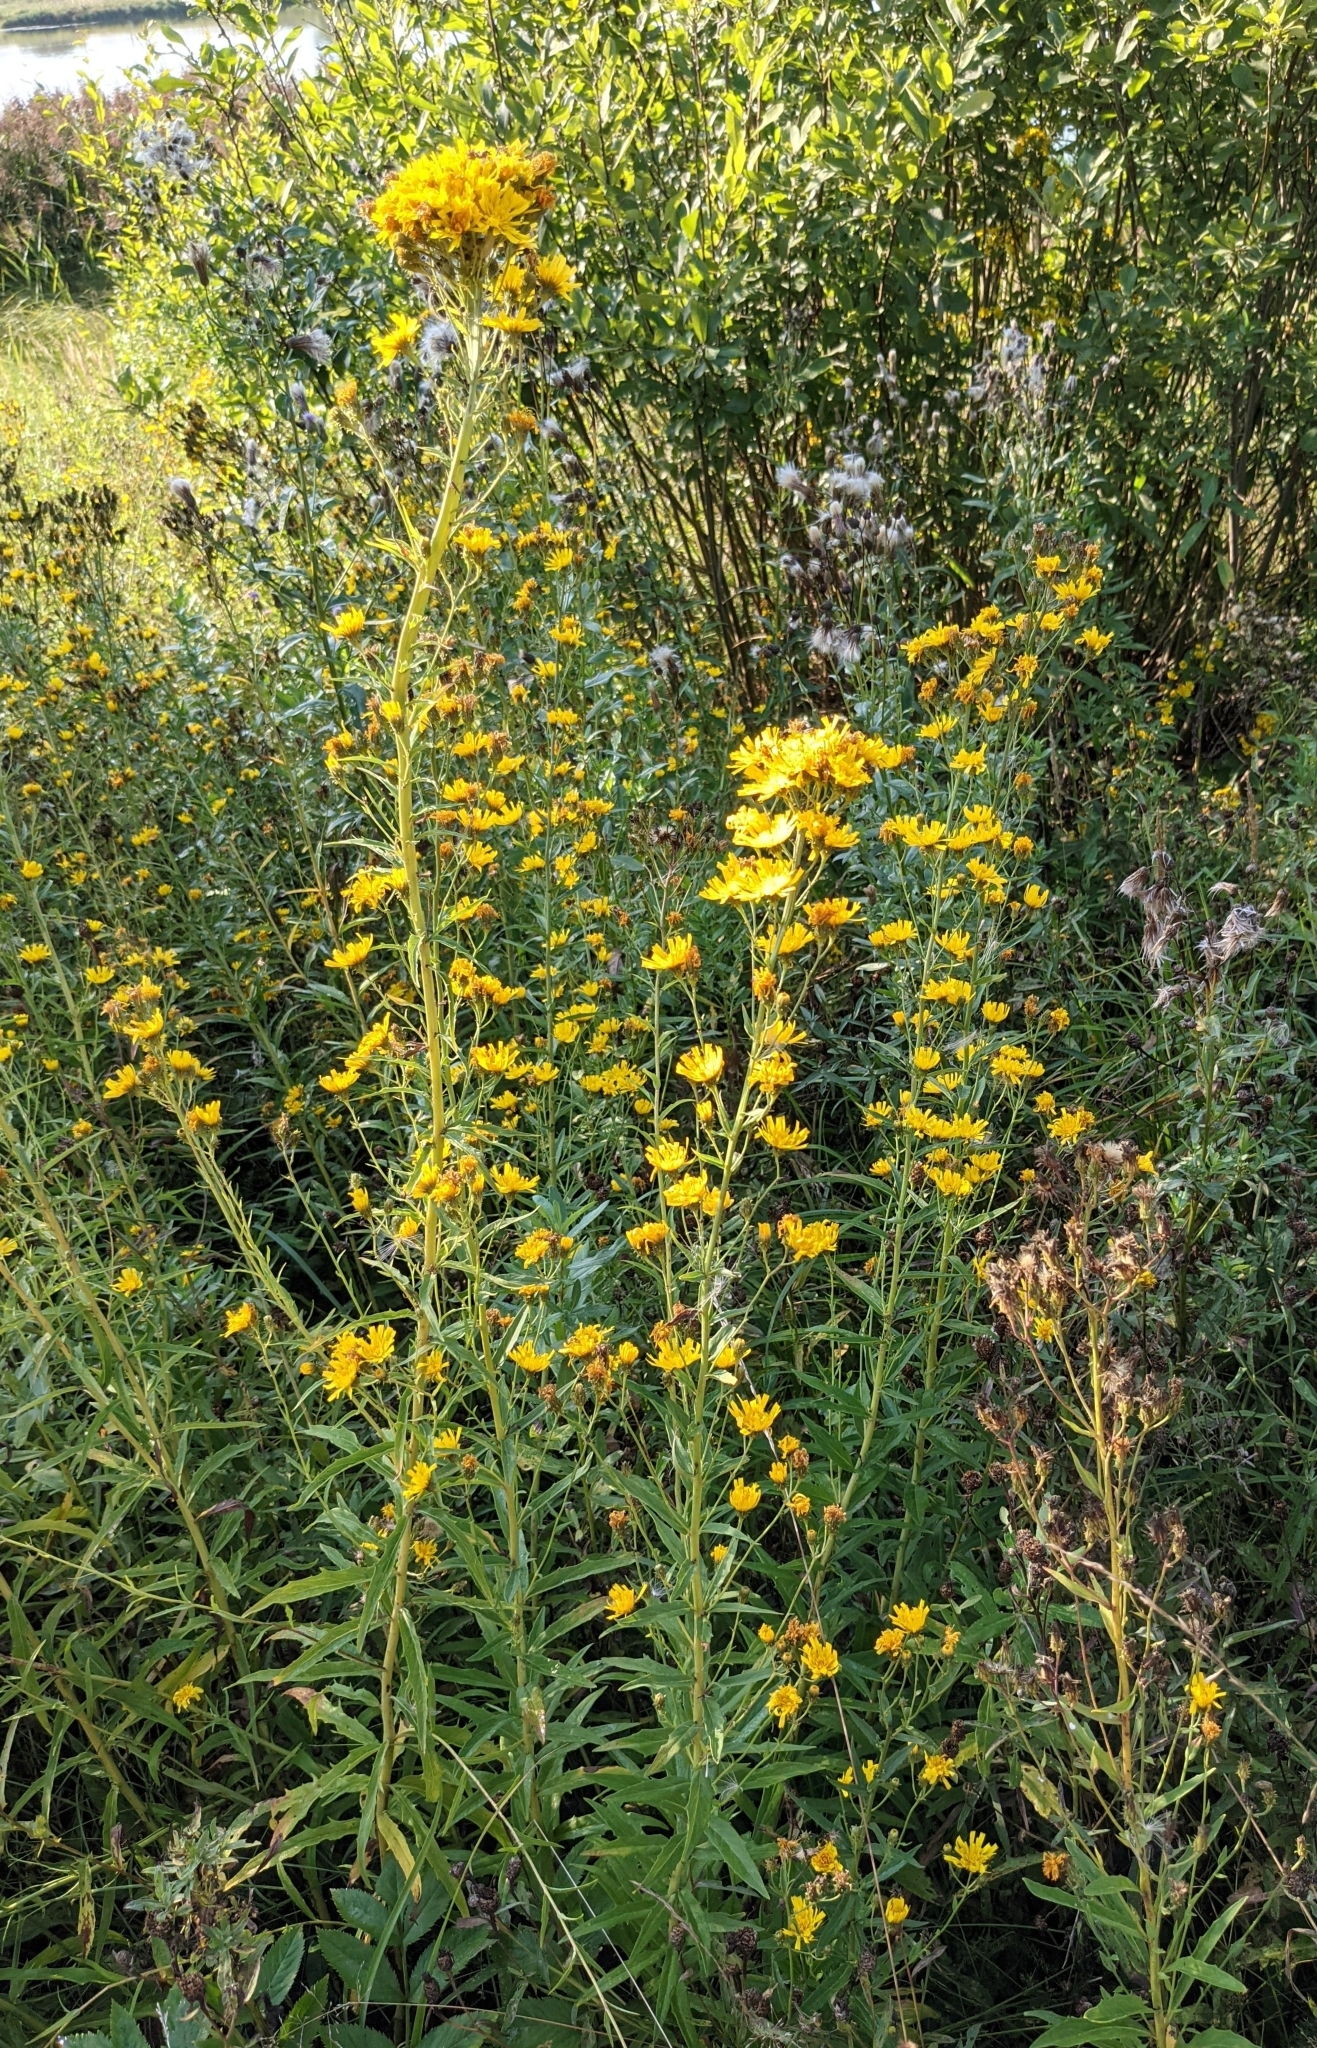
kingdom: Plantae
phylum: Tracheophyta
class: Magnoliopsida
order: Asterales
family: Asteraceae
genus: Hieracium
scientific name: Hieracium umbellatum
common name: Northern hawkweed
